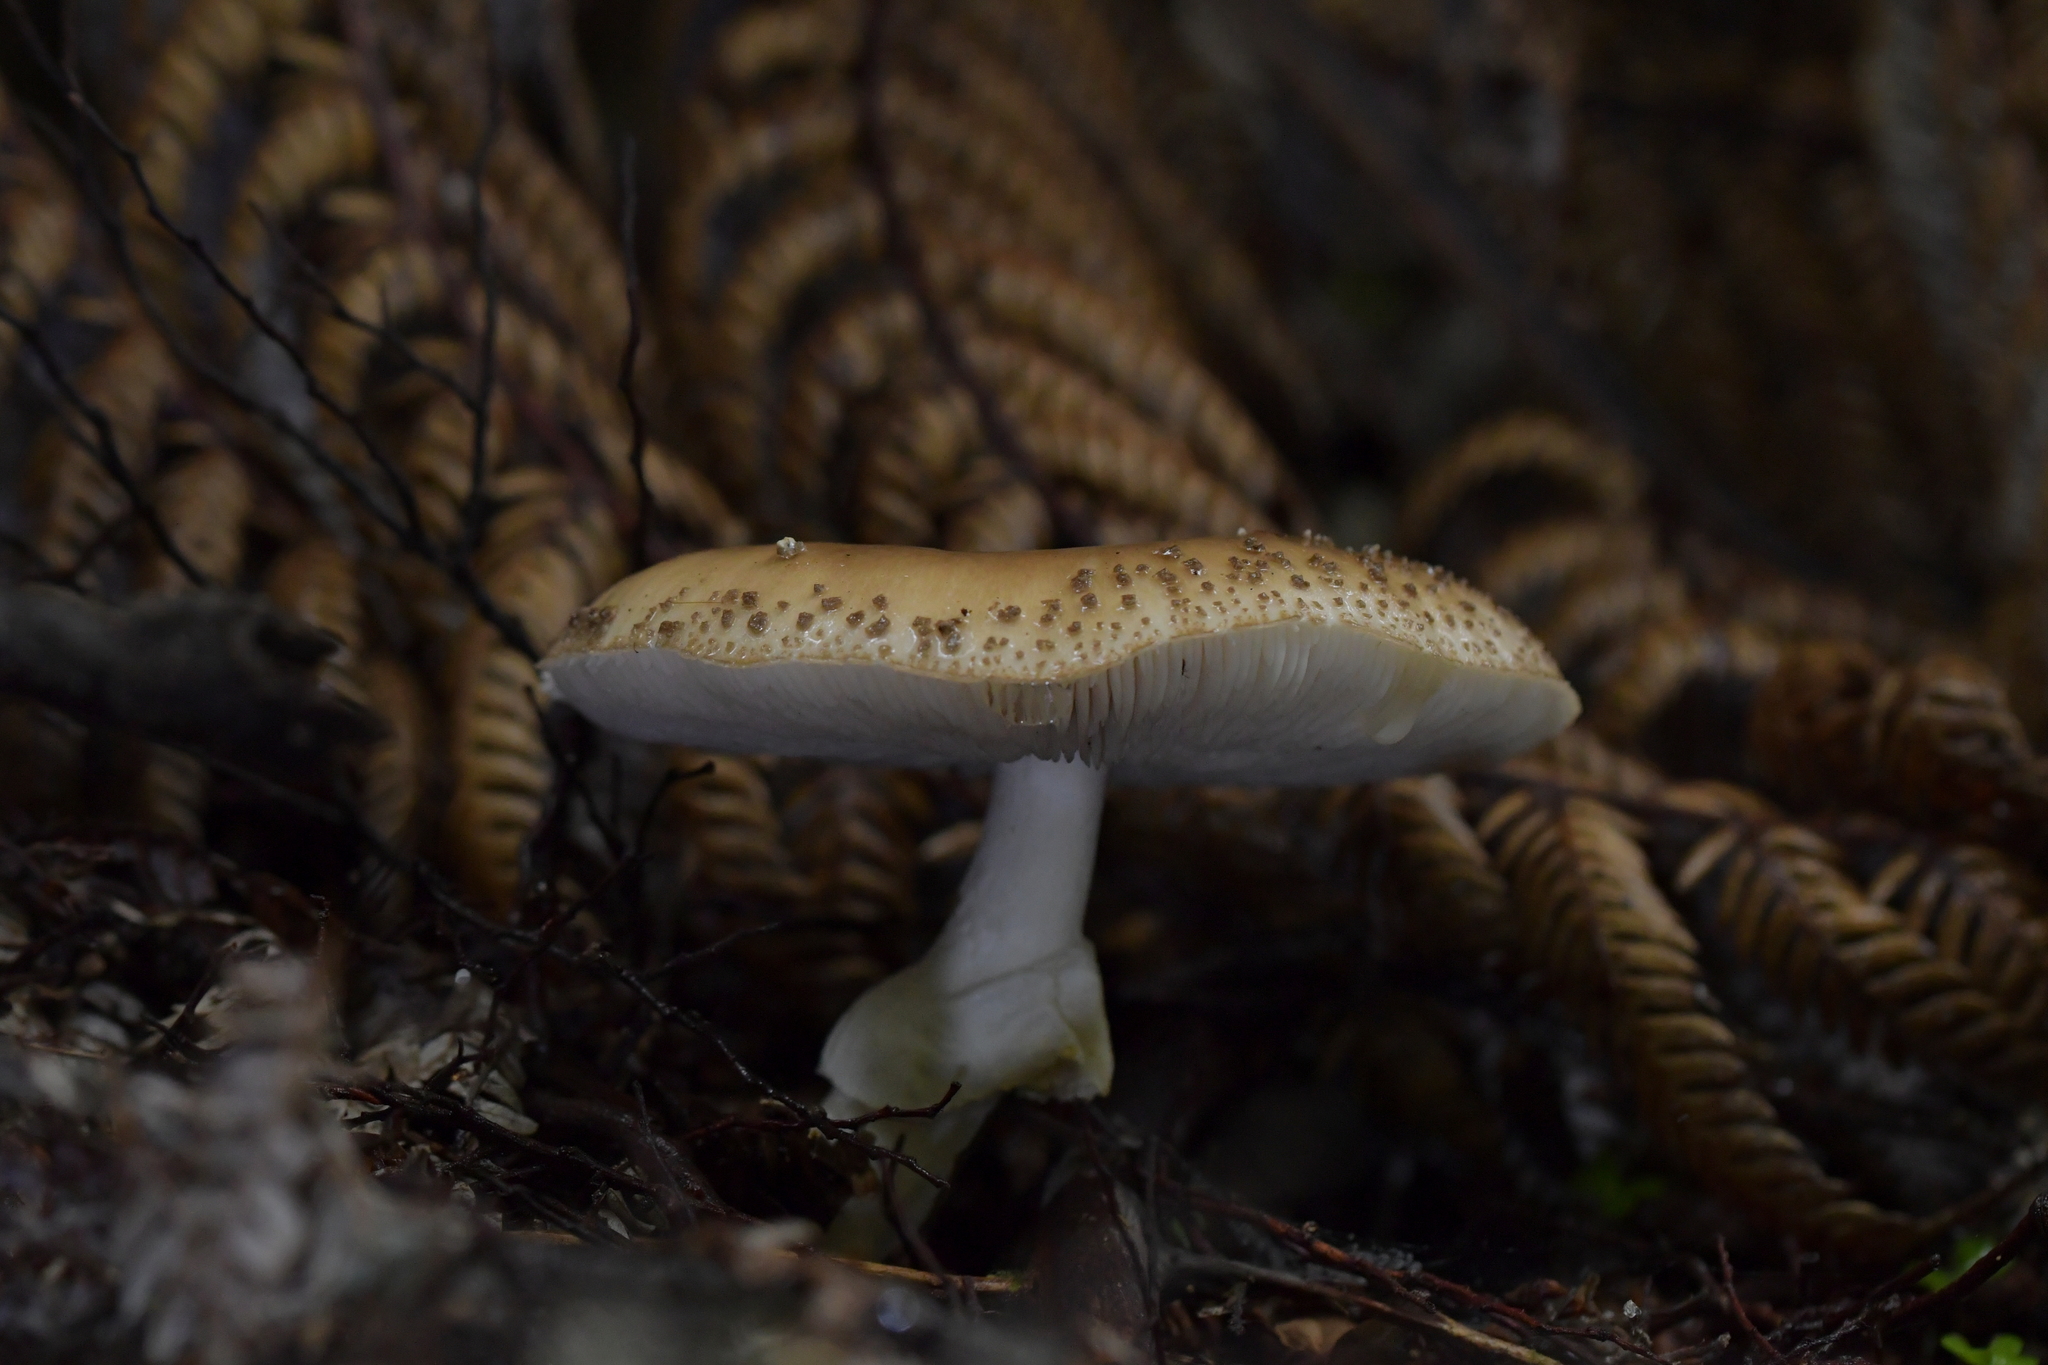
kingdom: Fungi
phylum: Basidiomycota
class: Agaricomycetes
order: Agaricales
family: Amanitaceae
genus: Amanita
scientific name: Amanita australis
